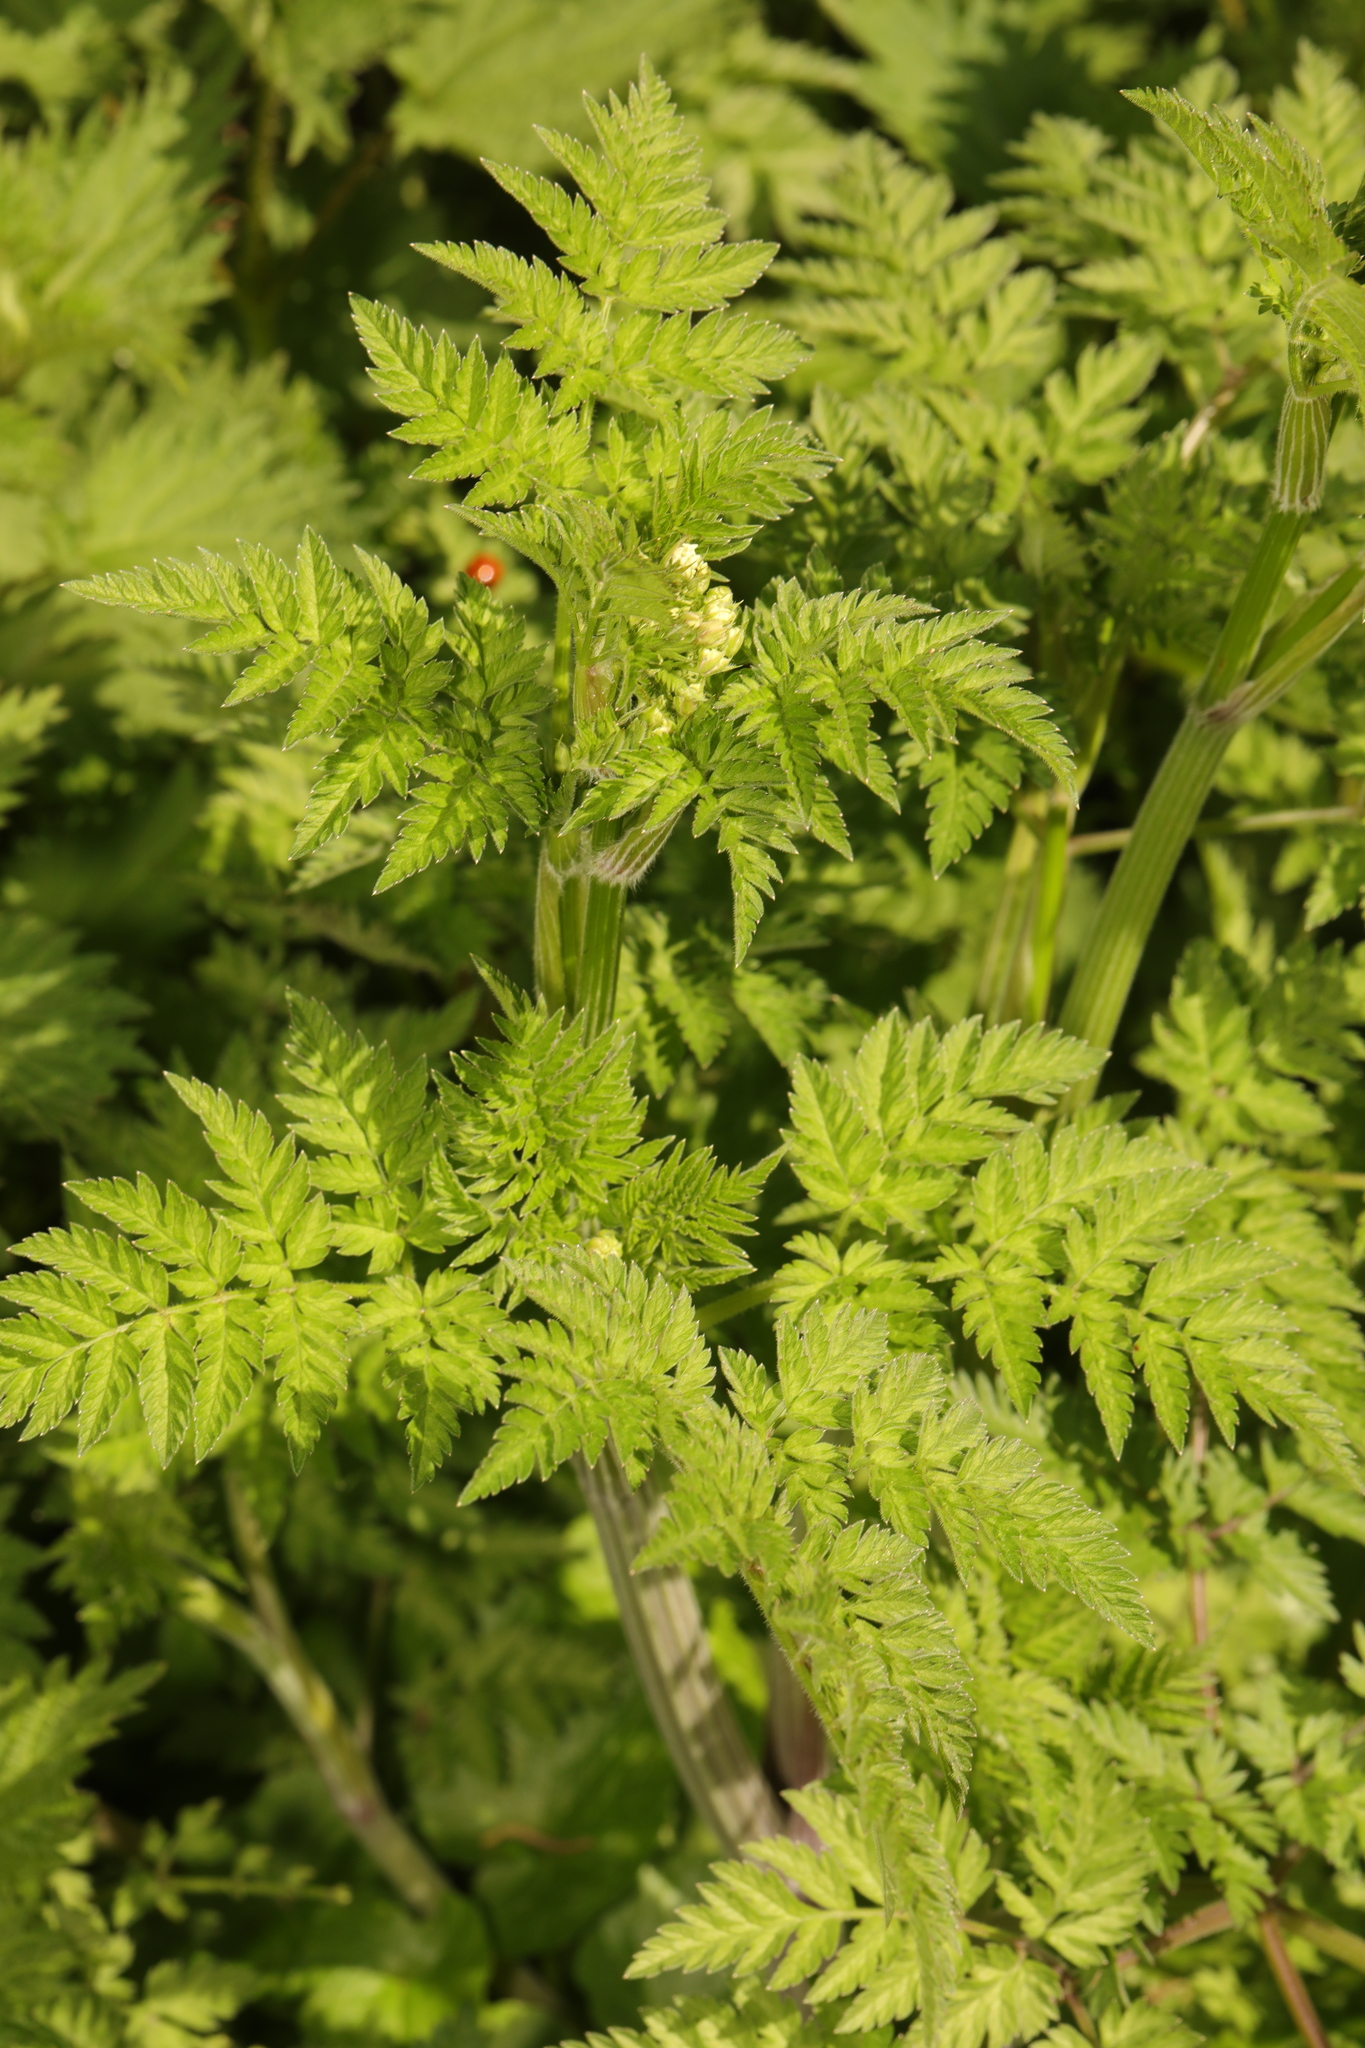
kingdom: Plantae
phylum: Tracheophyta
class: Magnoliopsida
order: Apiales
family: Apiaceae
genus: Anthriscus
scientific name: Anthriscus sylvestris
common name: Cow parsley
